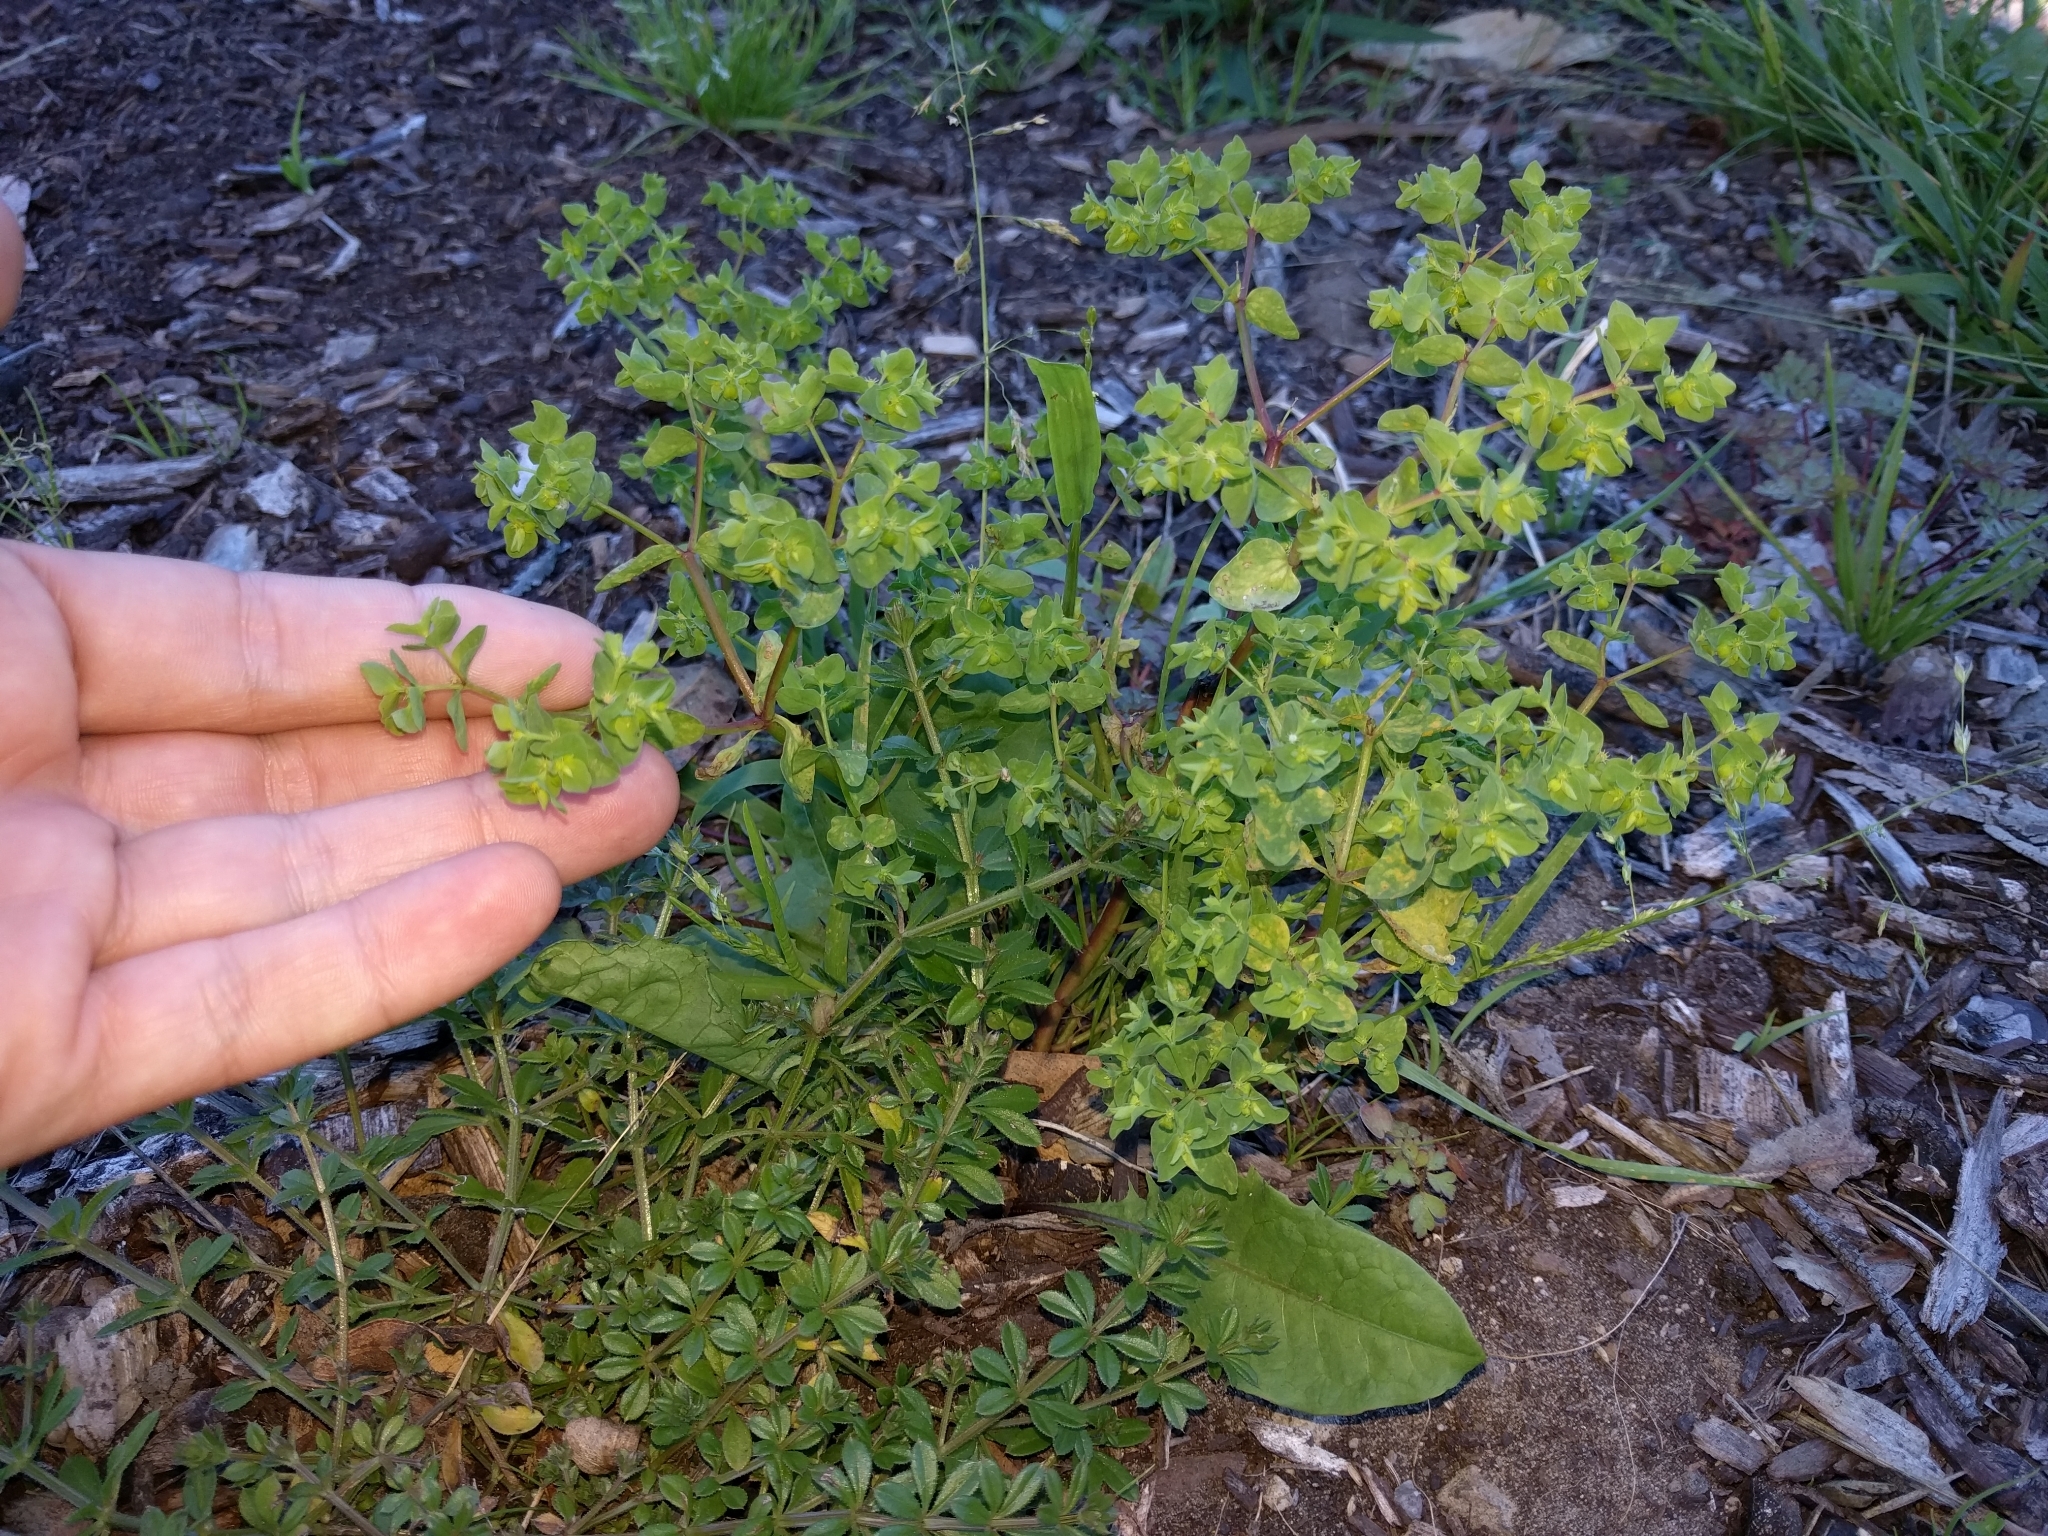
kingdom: Plantae
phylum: Tracheophyta
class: Magnoliopsida
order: Malpighiales
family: Euphorbiaceae
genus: Euphorbia
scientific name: Euphorbia peplus
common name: Petty spurge
